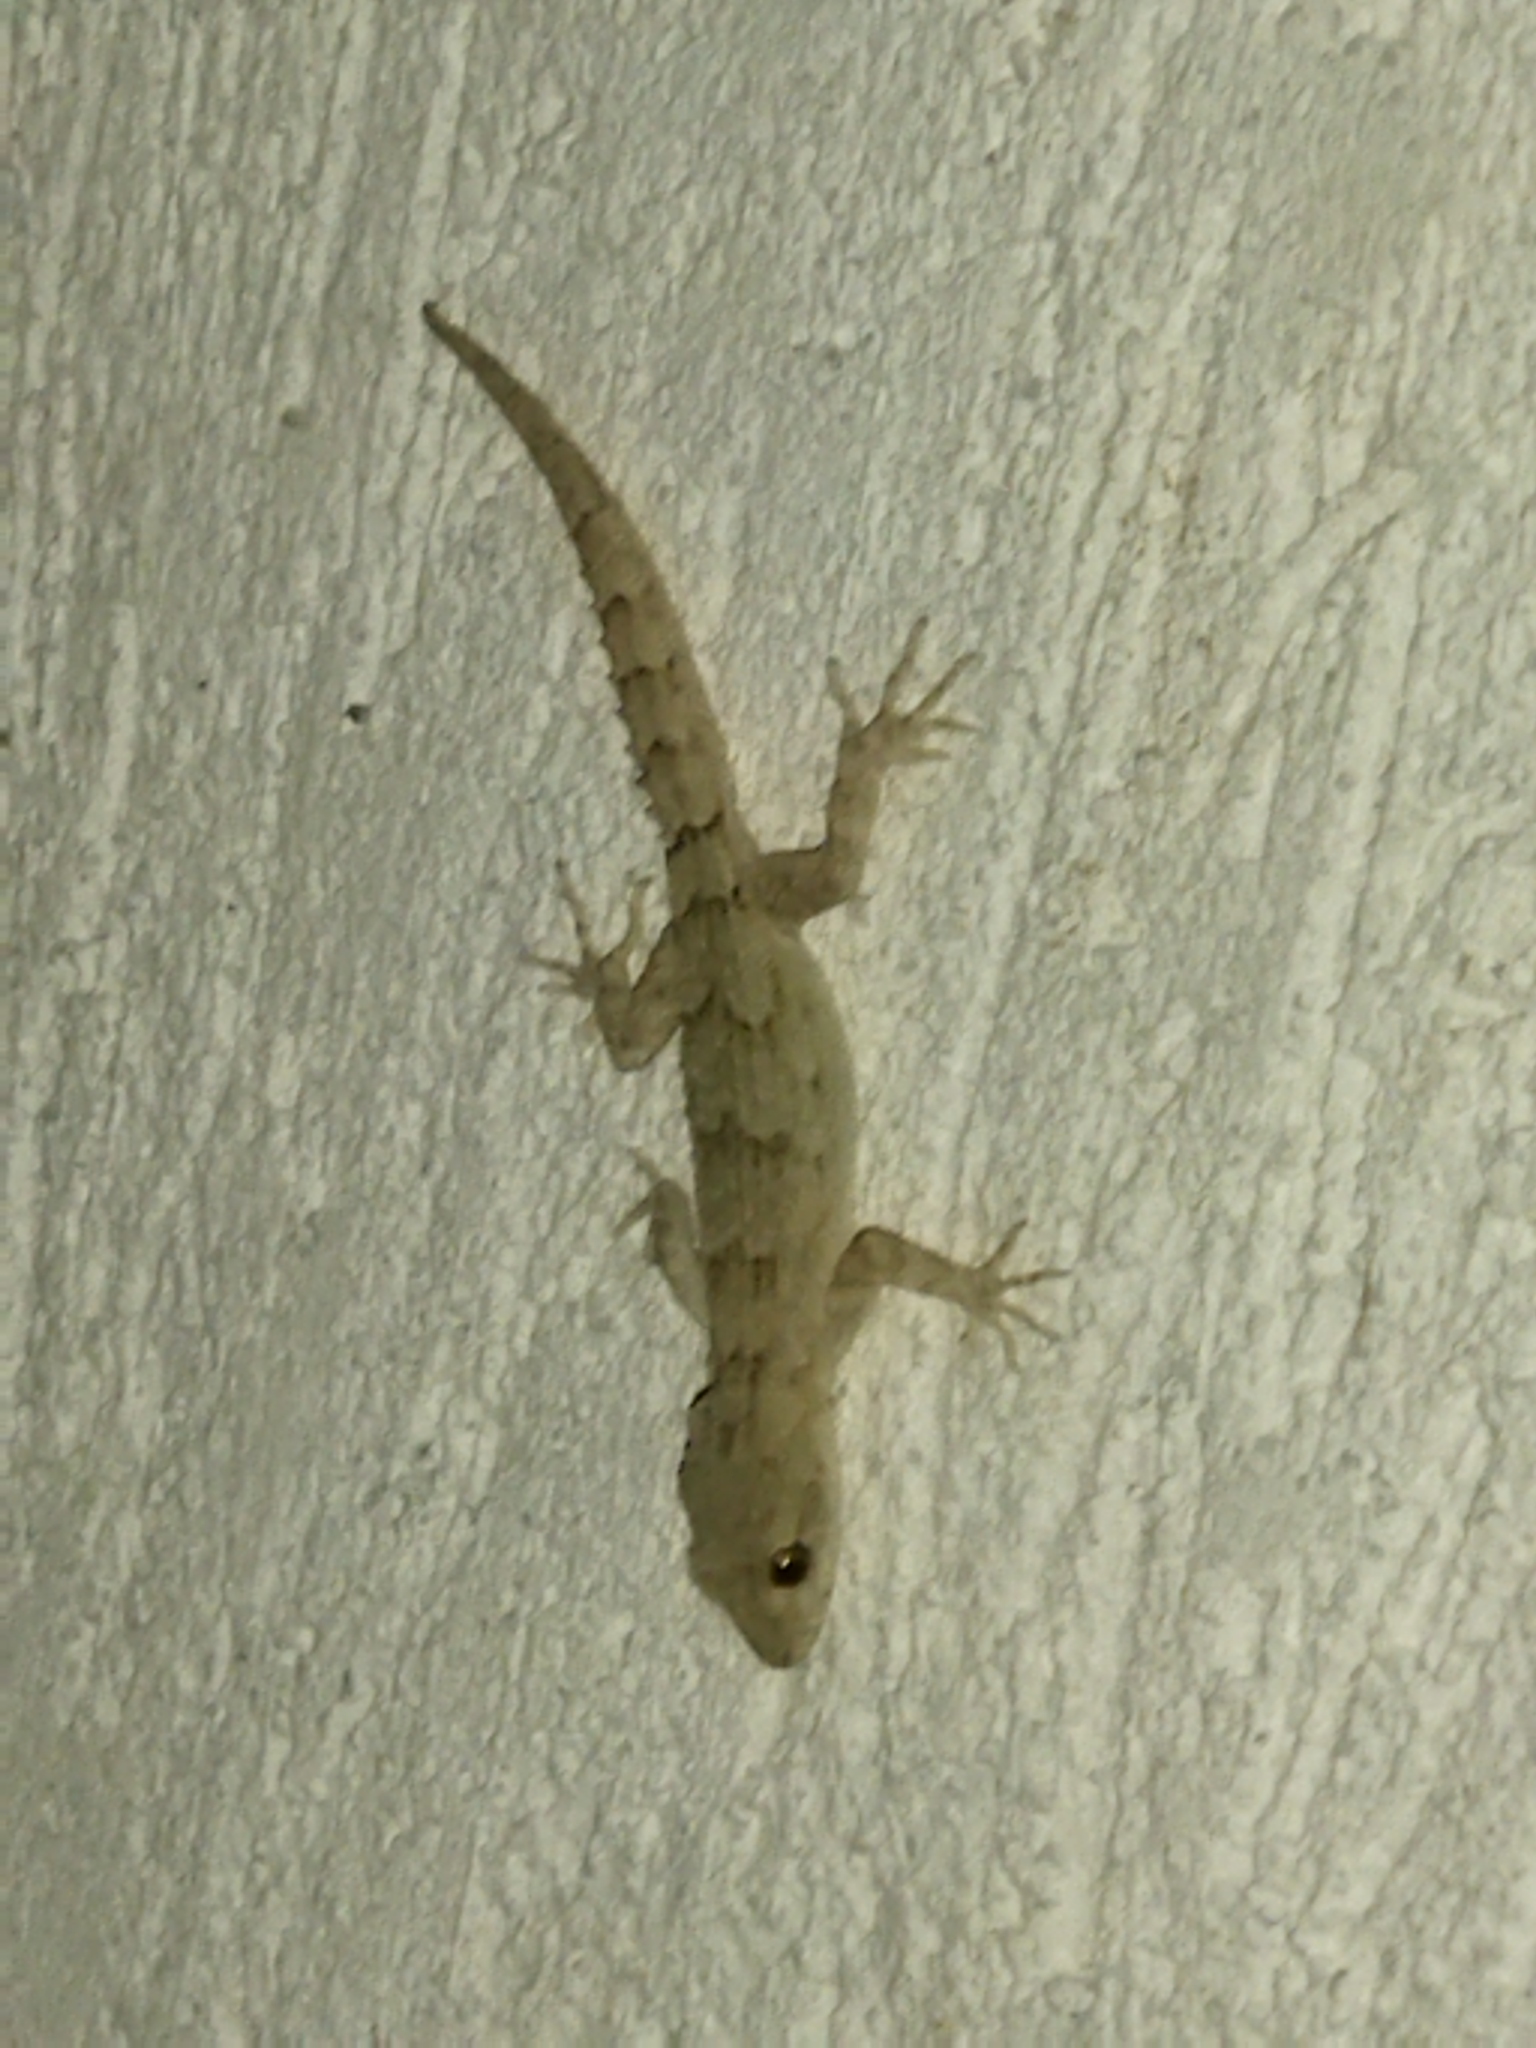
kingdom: Animalia
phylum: Chordata
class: Squamata
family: Gekkonidae
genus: Mediodactylus
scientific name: Mediodactylus kotschyi
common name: Kotschy's gecko
